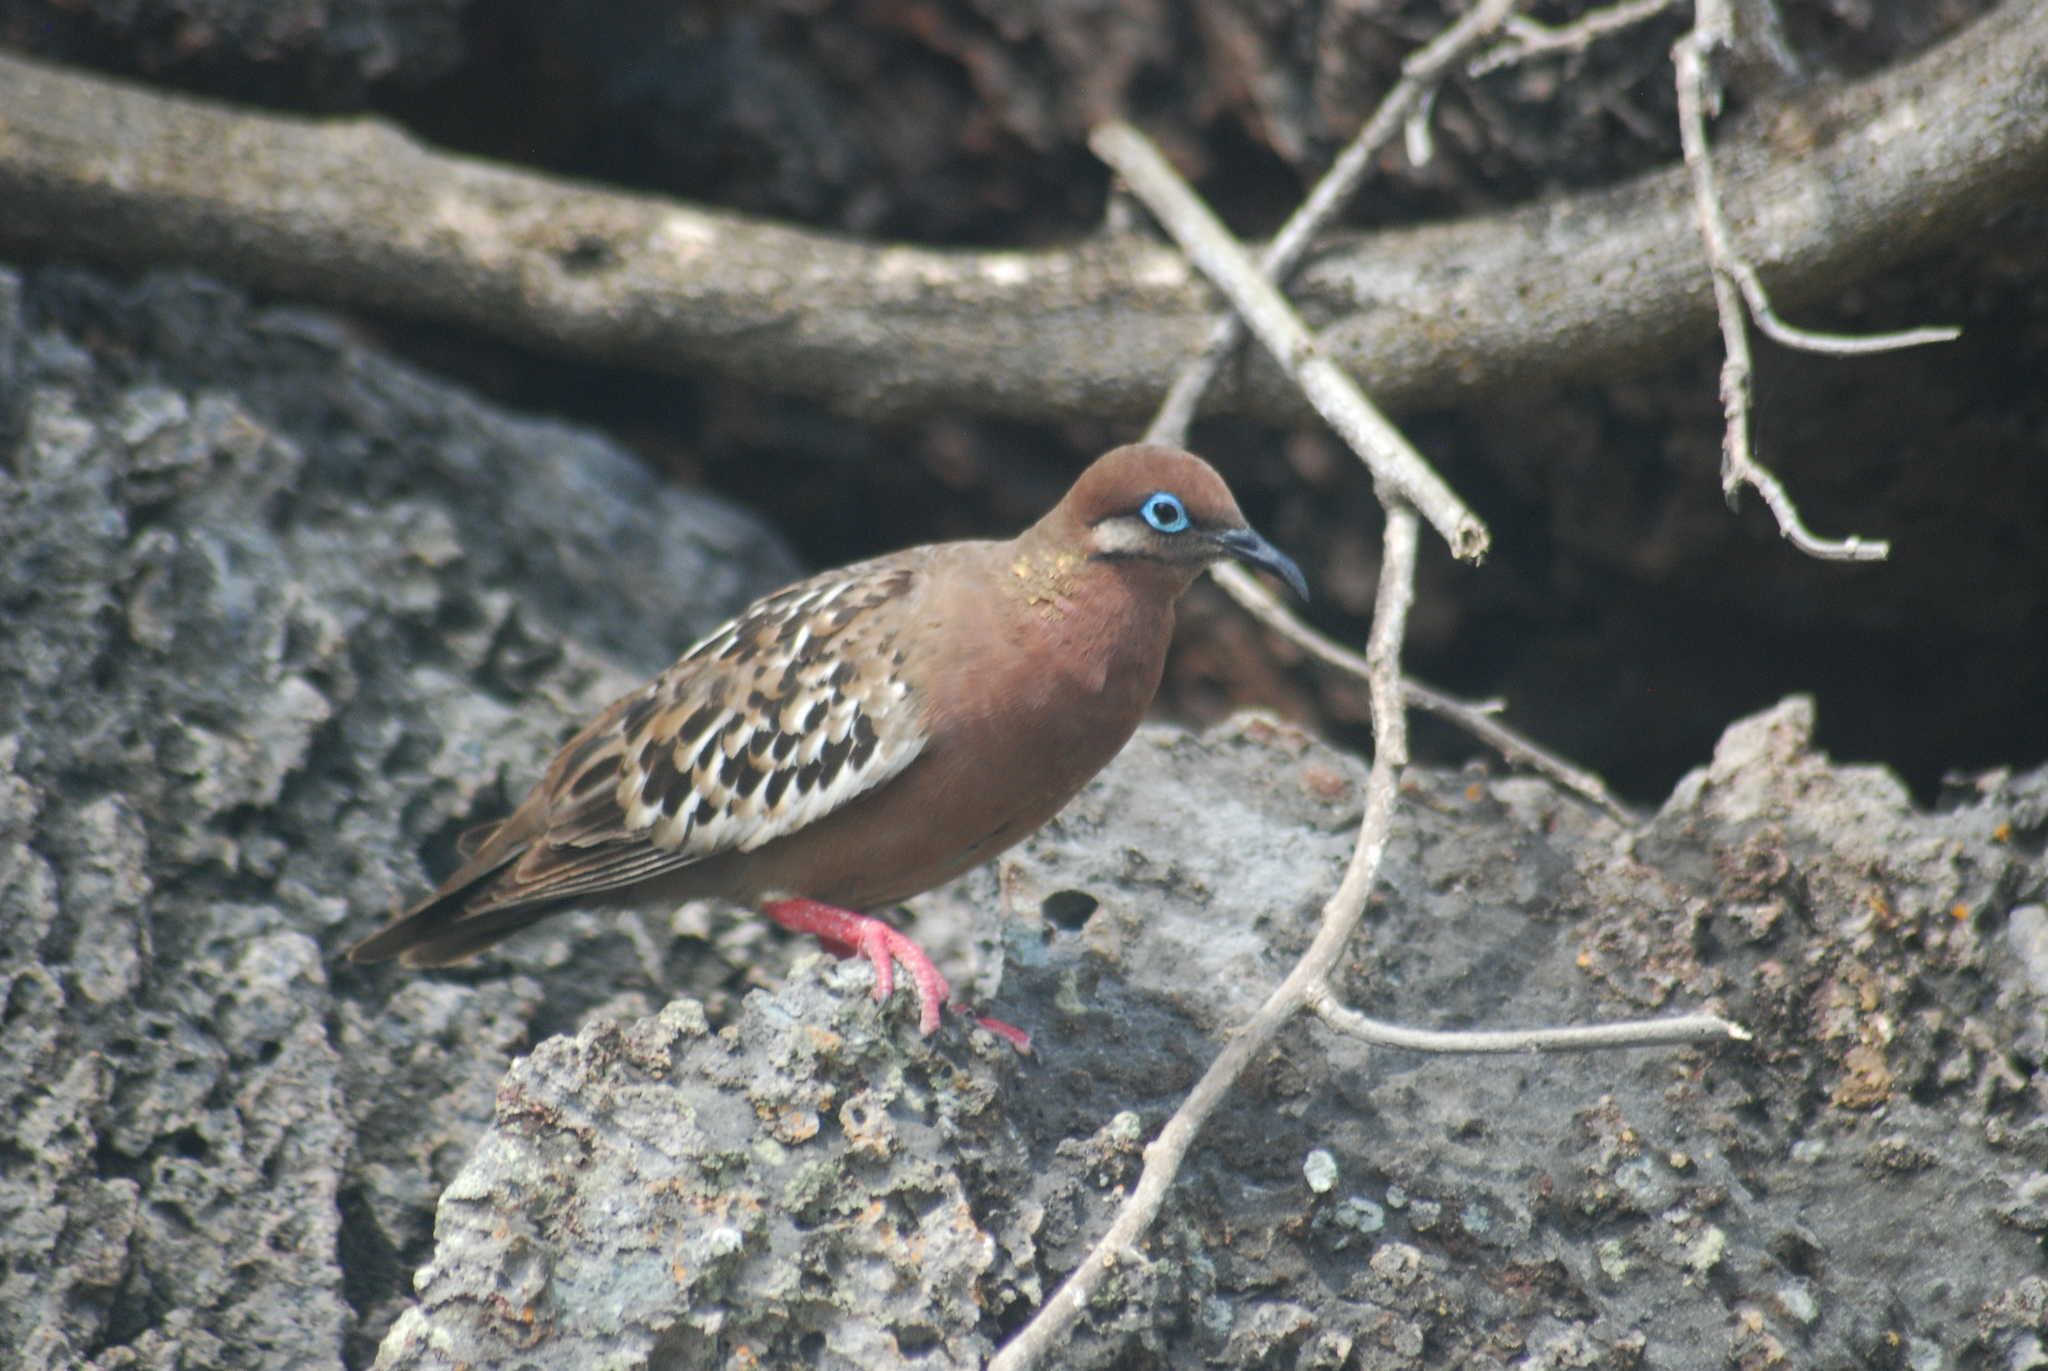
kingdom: Animalia
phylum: Chordata
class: Aves
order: Columbiformes
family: Columbidae
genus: Zenaida
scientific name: Zenaida galapagoensis
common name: Galapagos dove
